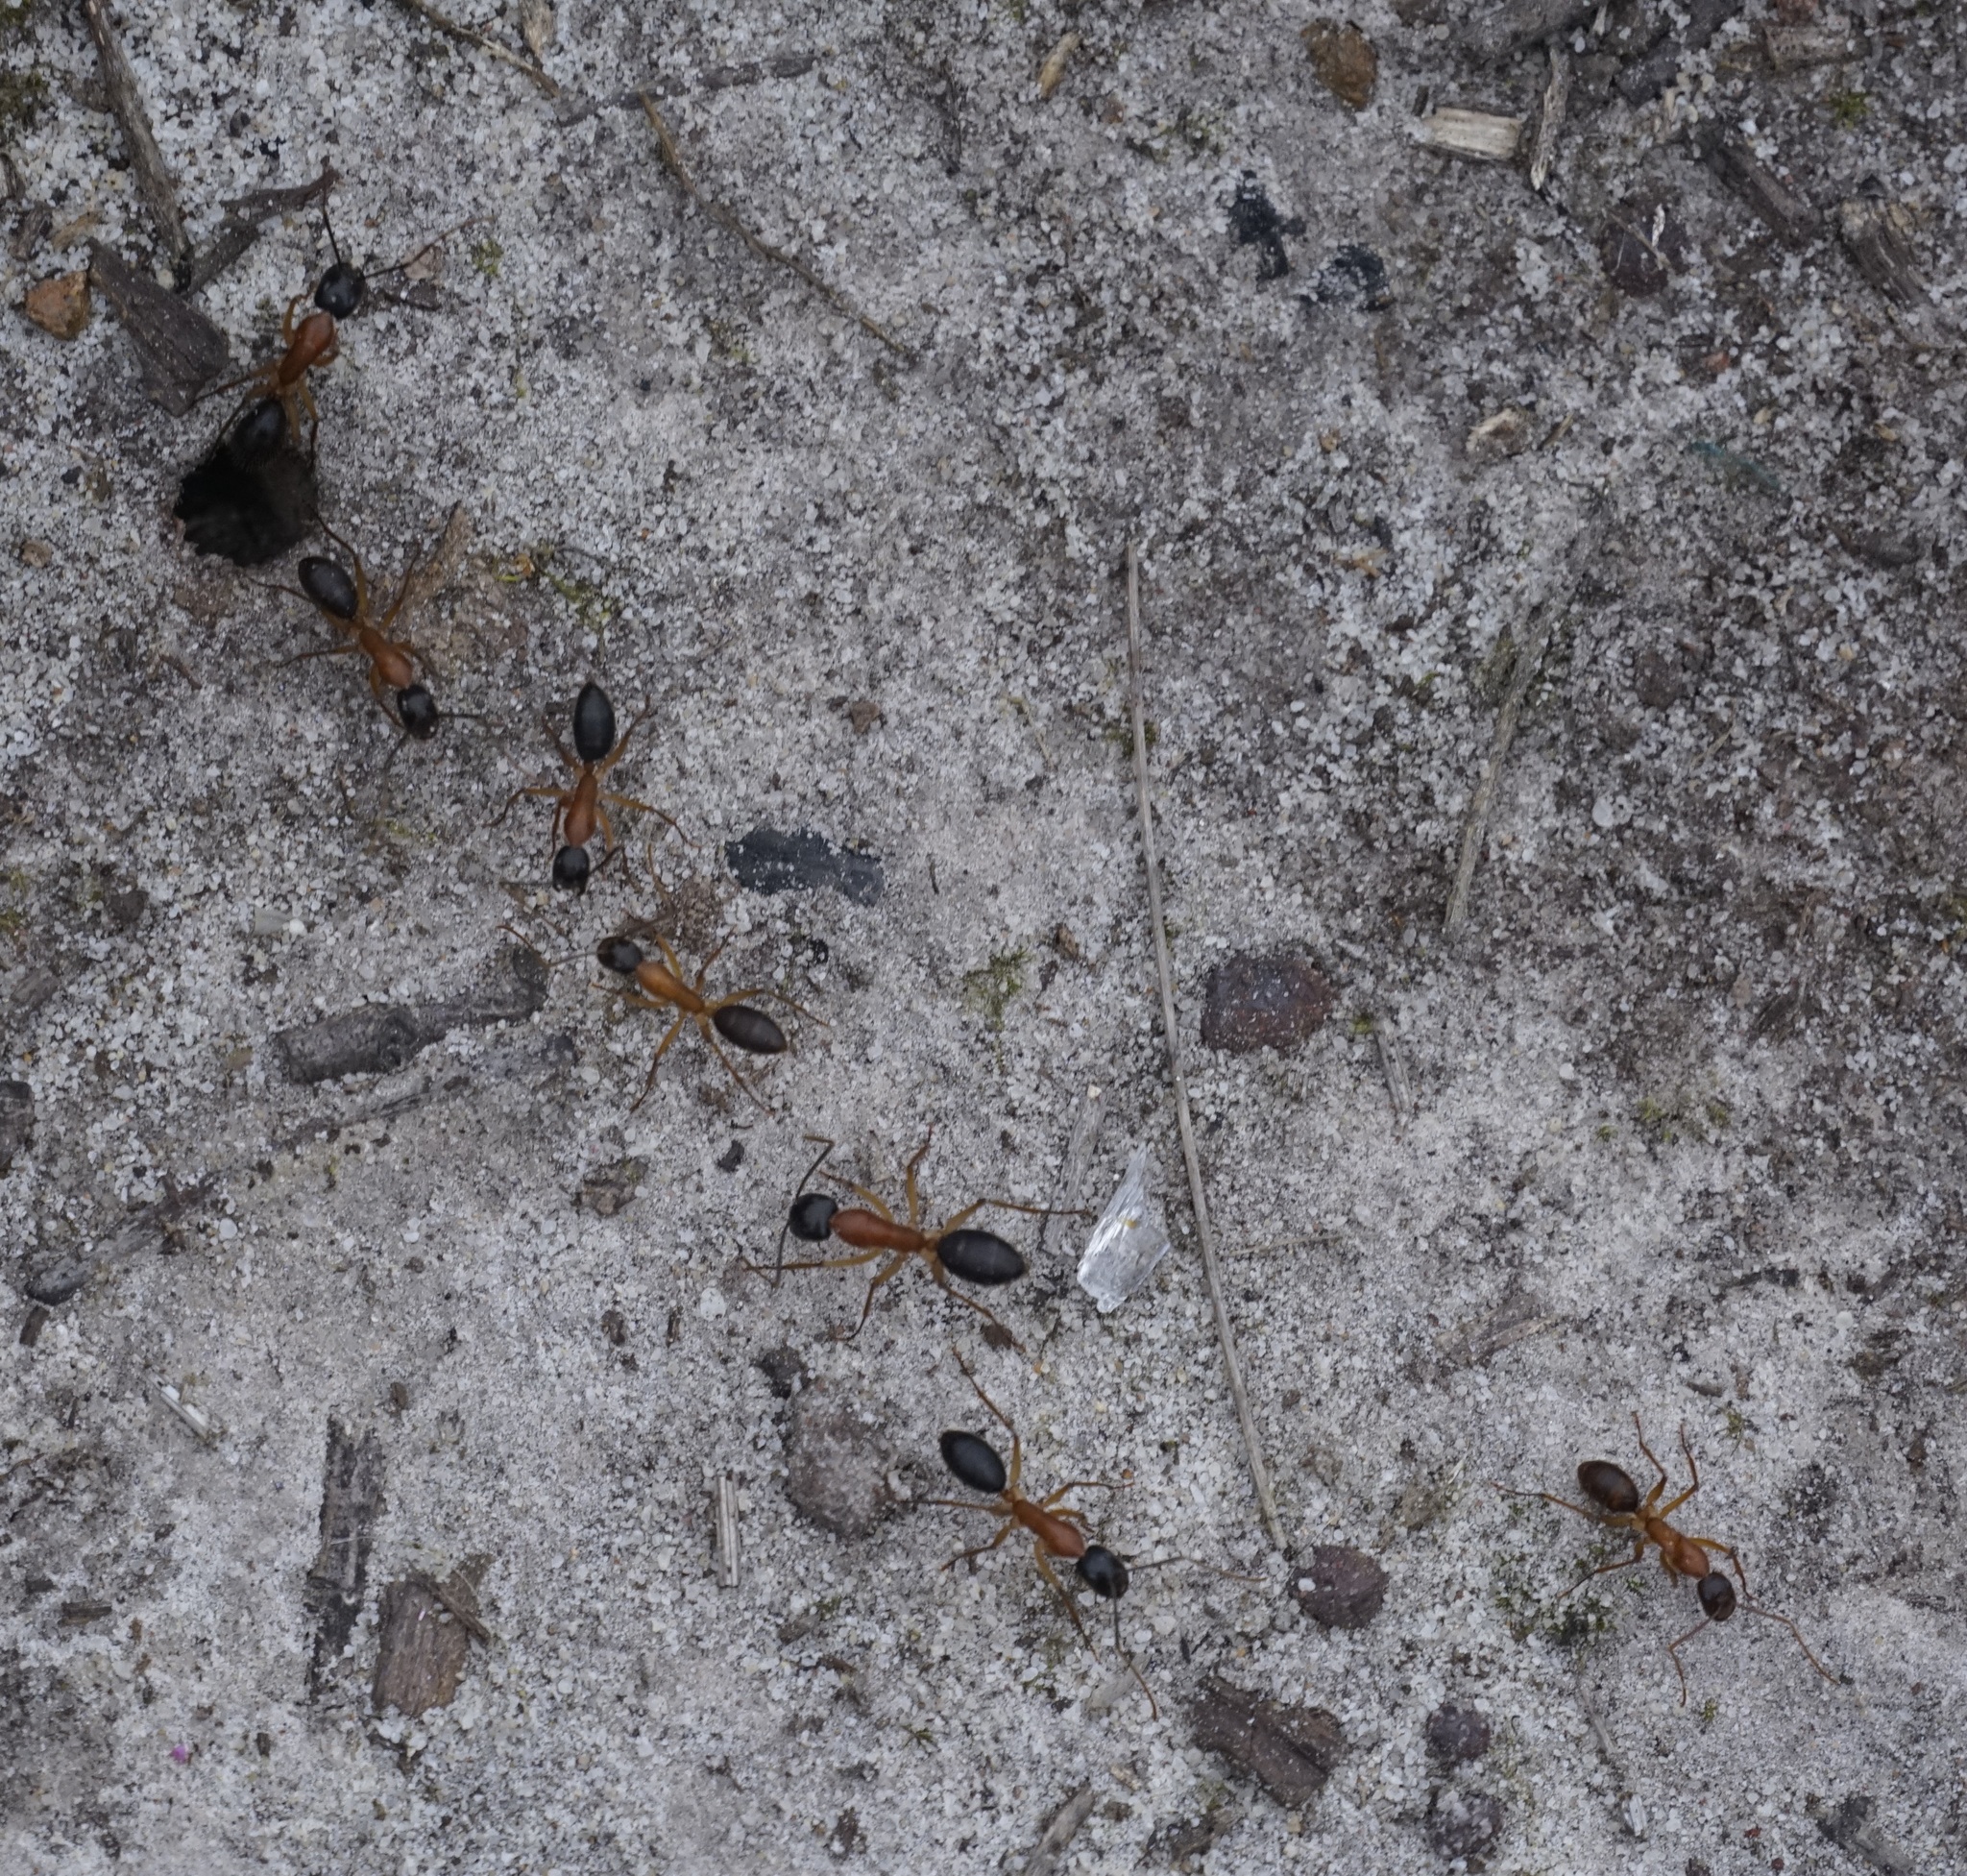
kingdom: Animalia
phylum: Arthropoda
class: Insecta
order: Hymenoptera
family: Formicidae
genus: Camponotus
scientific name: Camponotus nigriceps
